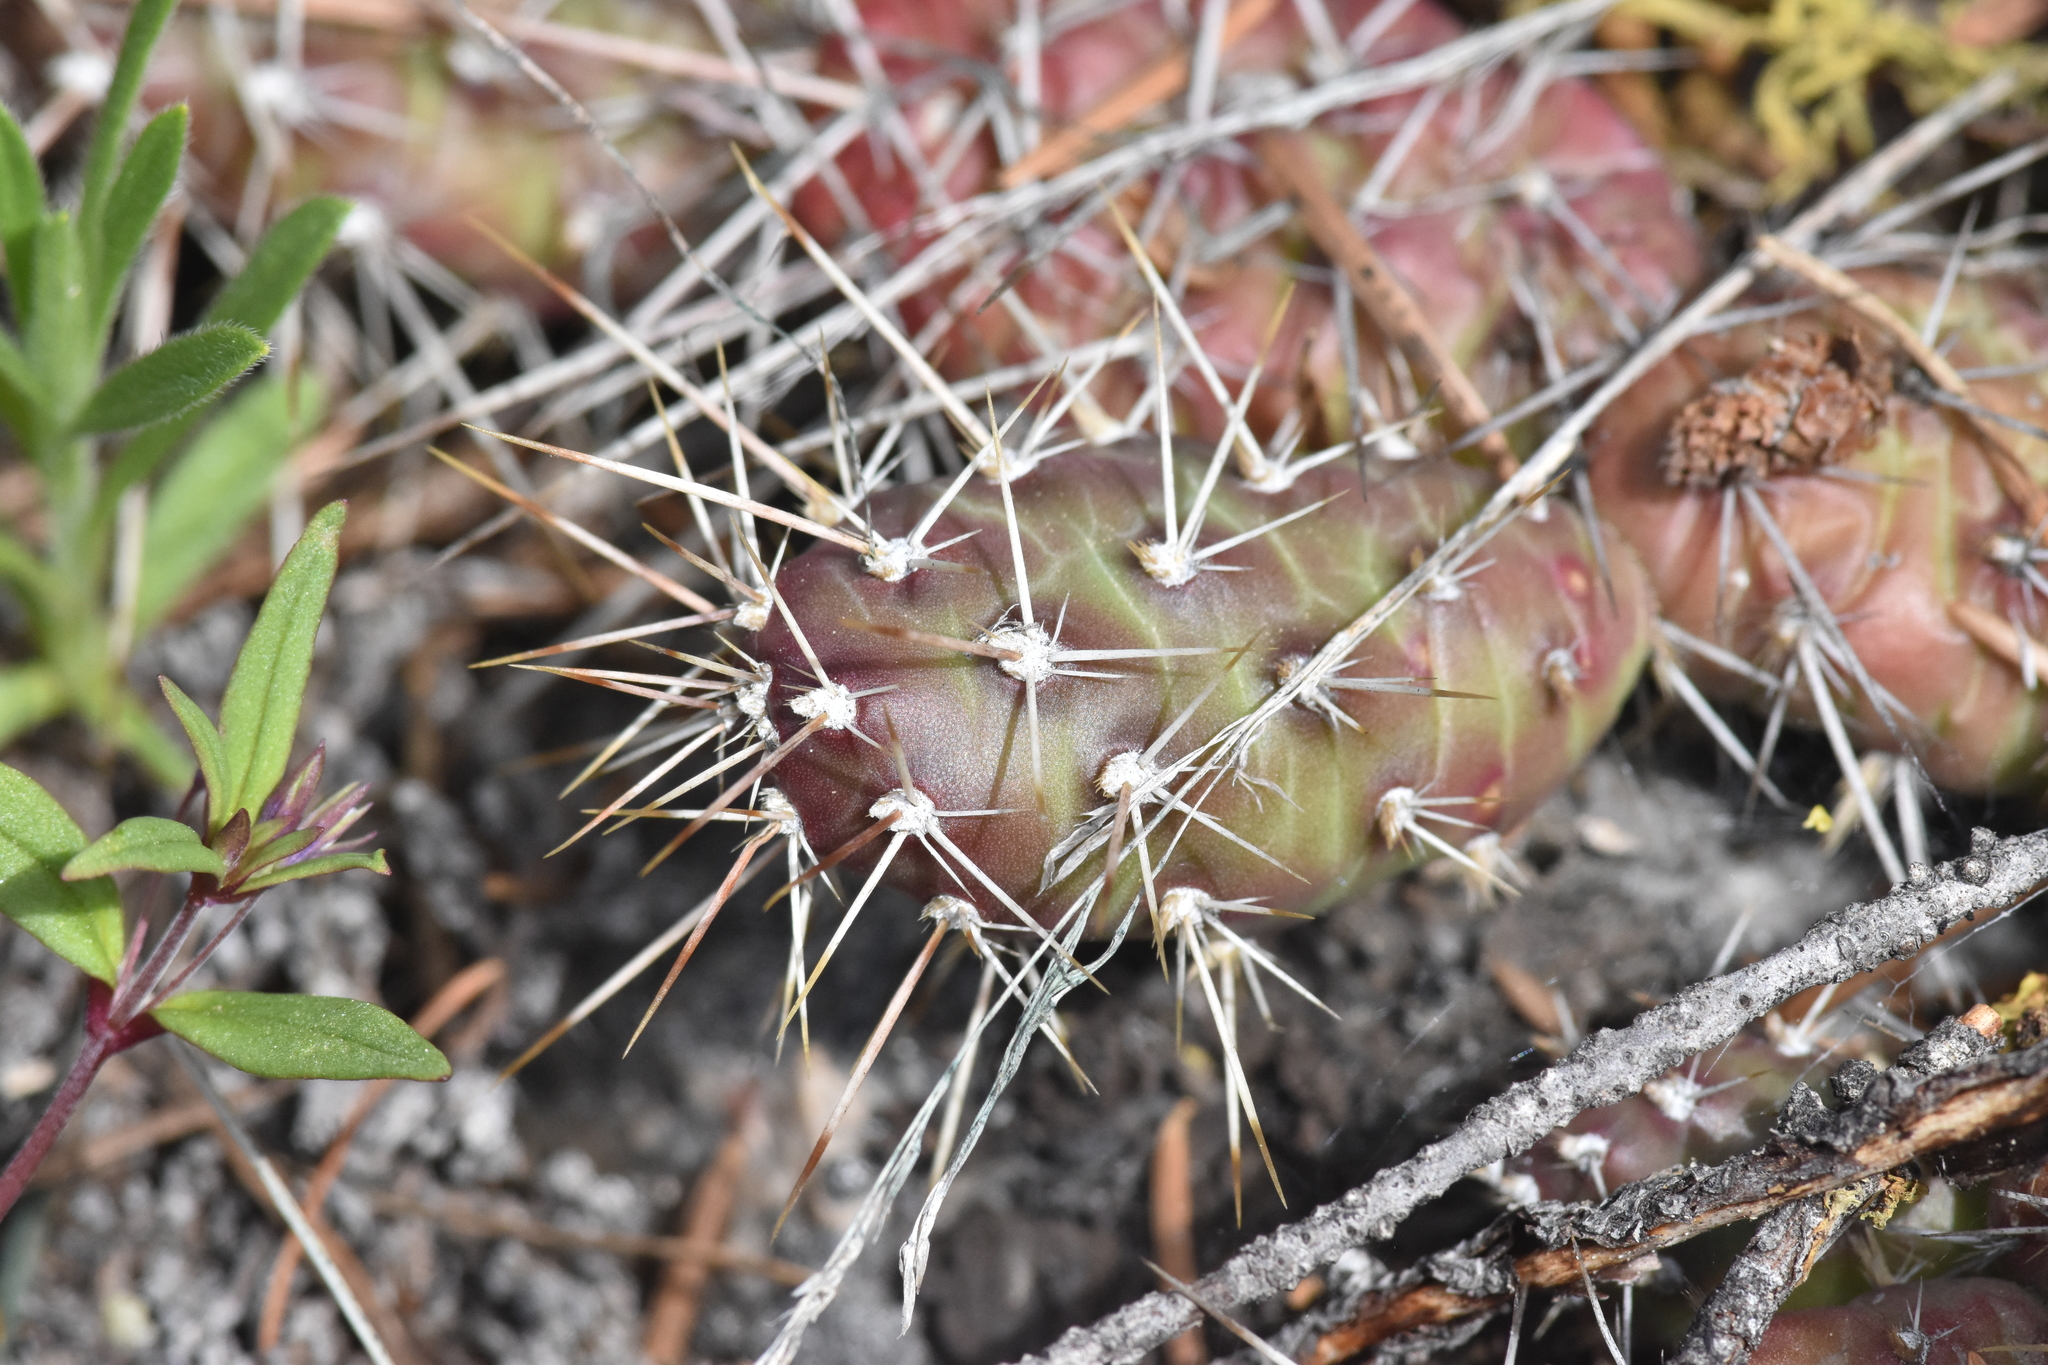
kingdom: Plantae
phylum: Tracheophyta
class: Magnoliopsida
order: Caryophyllales
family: Cactaceae
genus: Opuntia
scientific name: Opuntia fragilis
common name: Brittle cactus
